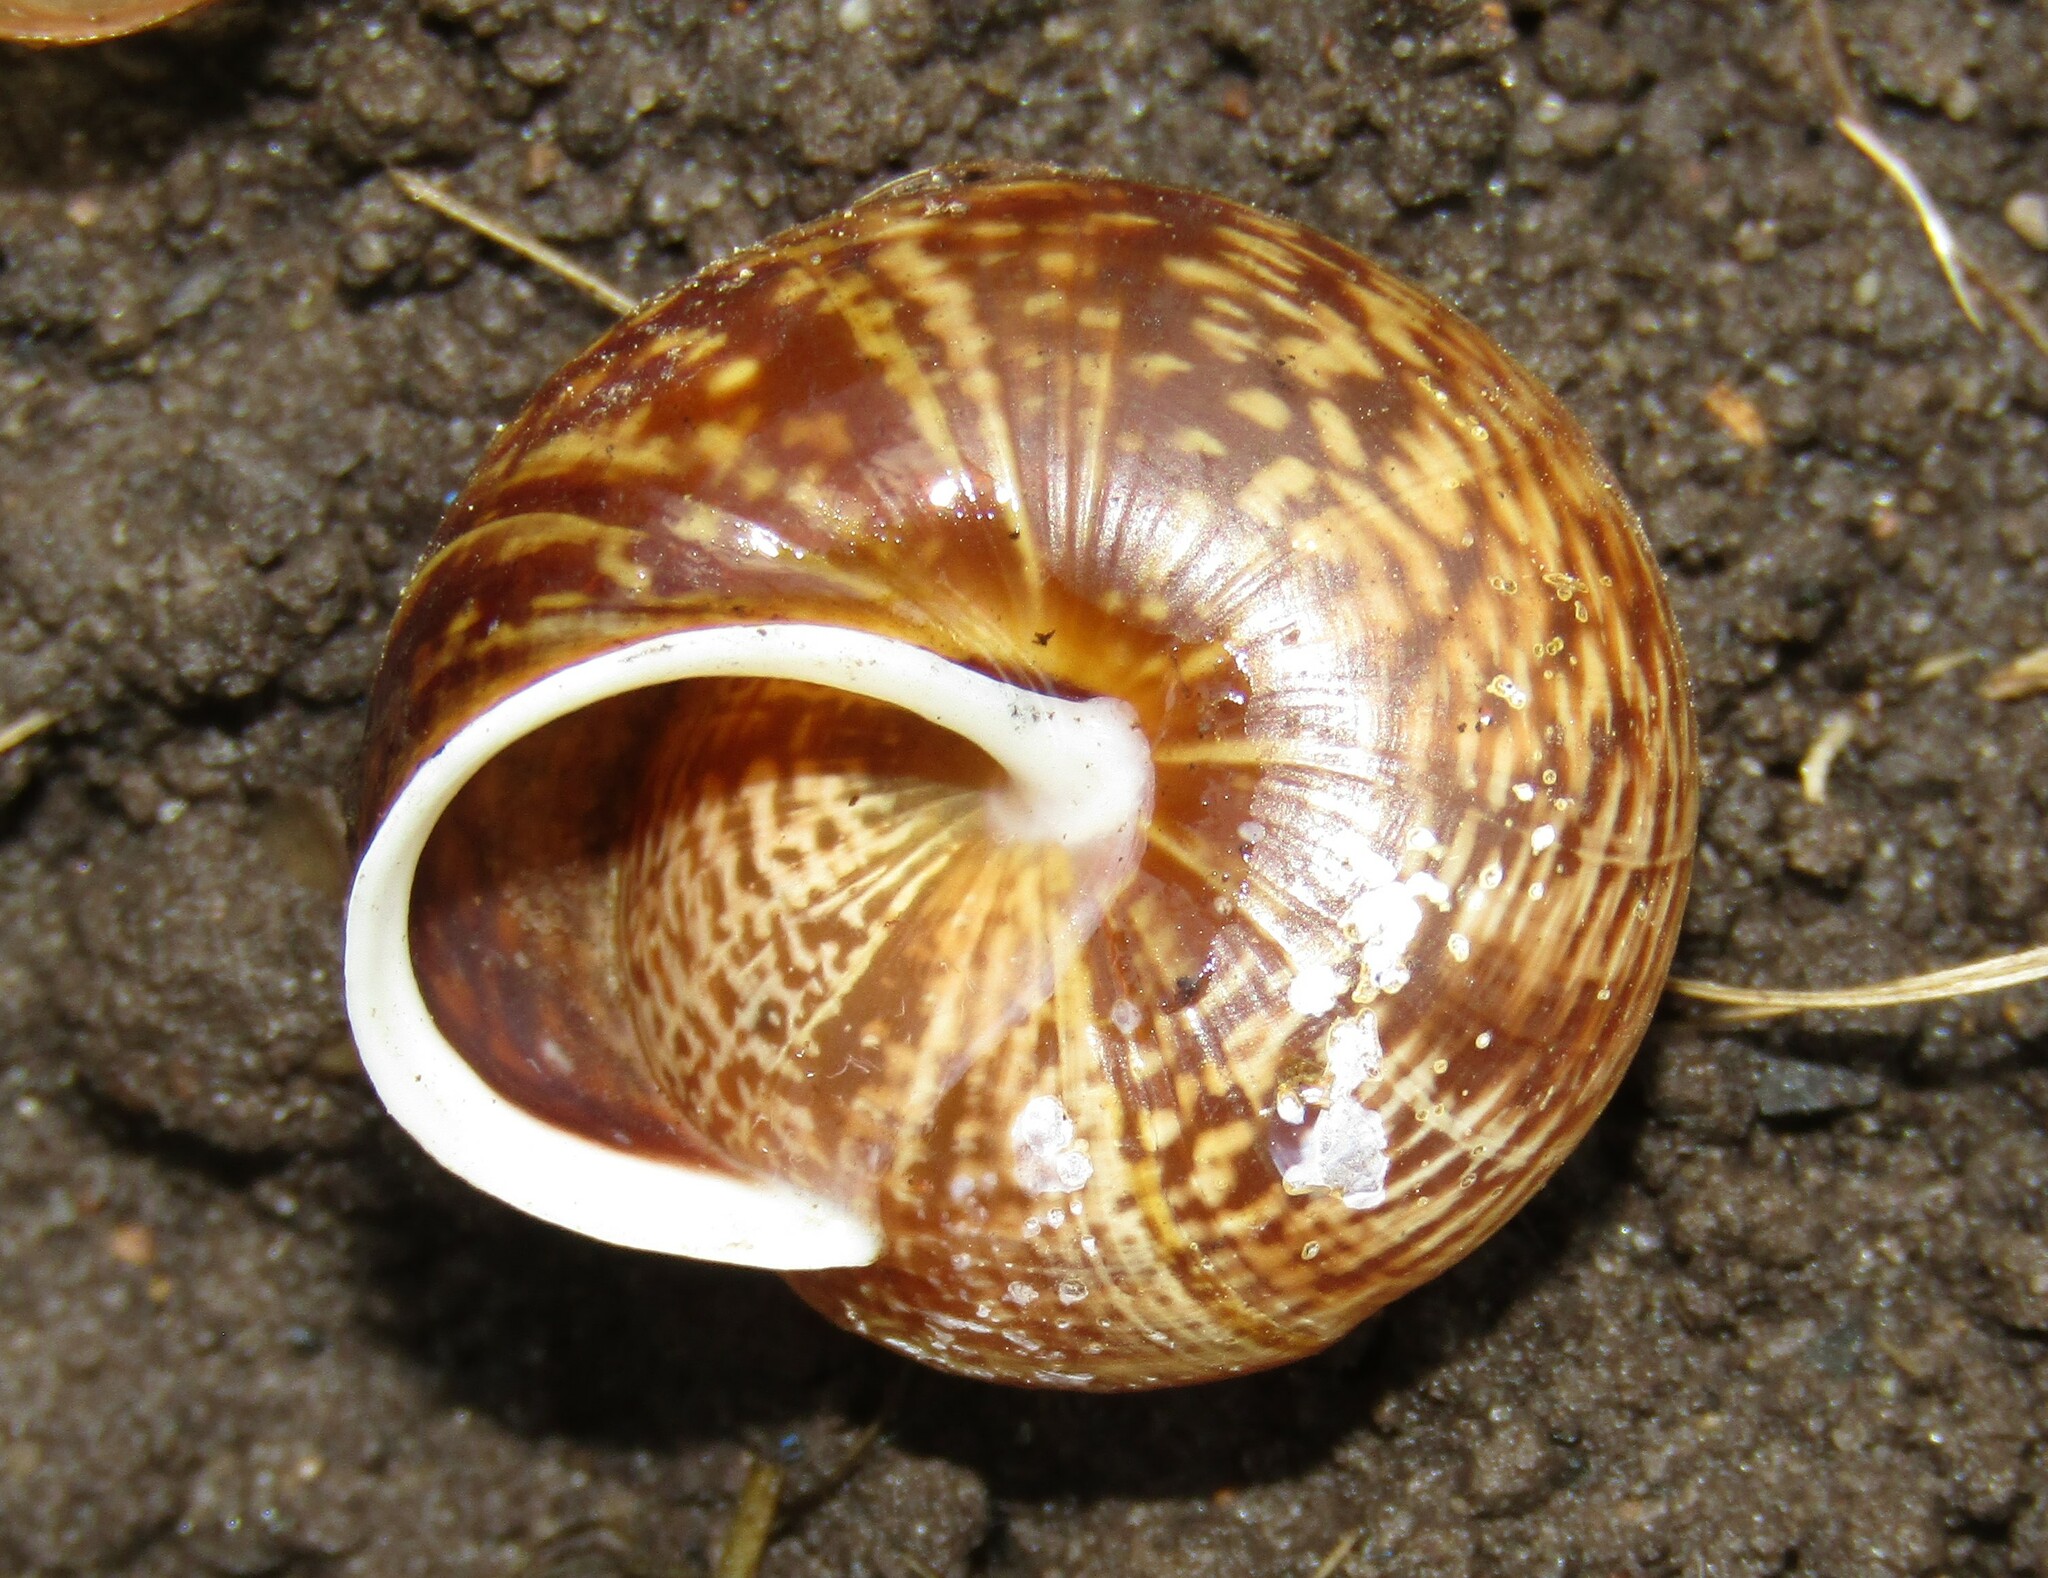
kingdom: Animalia
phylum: Mollusca
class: Gastropoda
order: Stylommatophora
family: Helicidae
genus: Arianta
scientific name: Arianta arbustorum
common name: Copse snail
